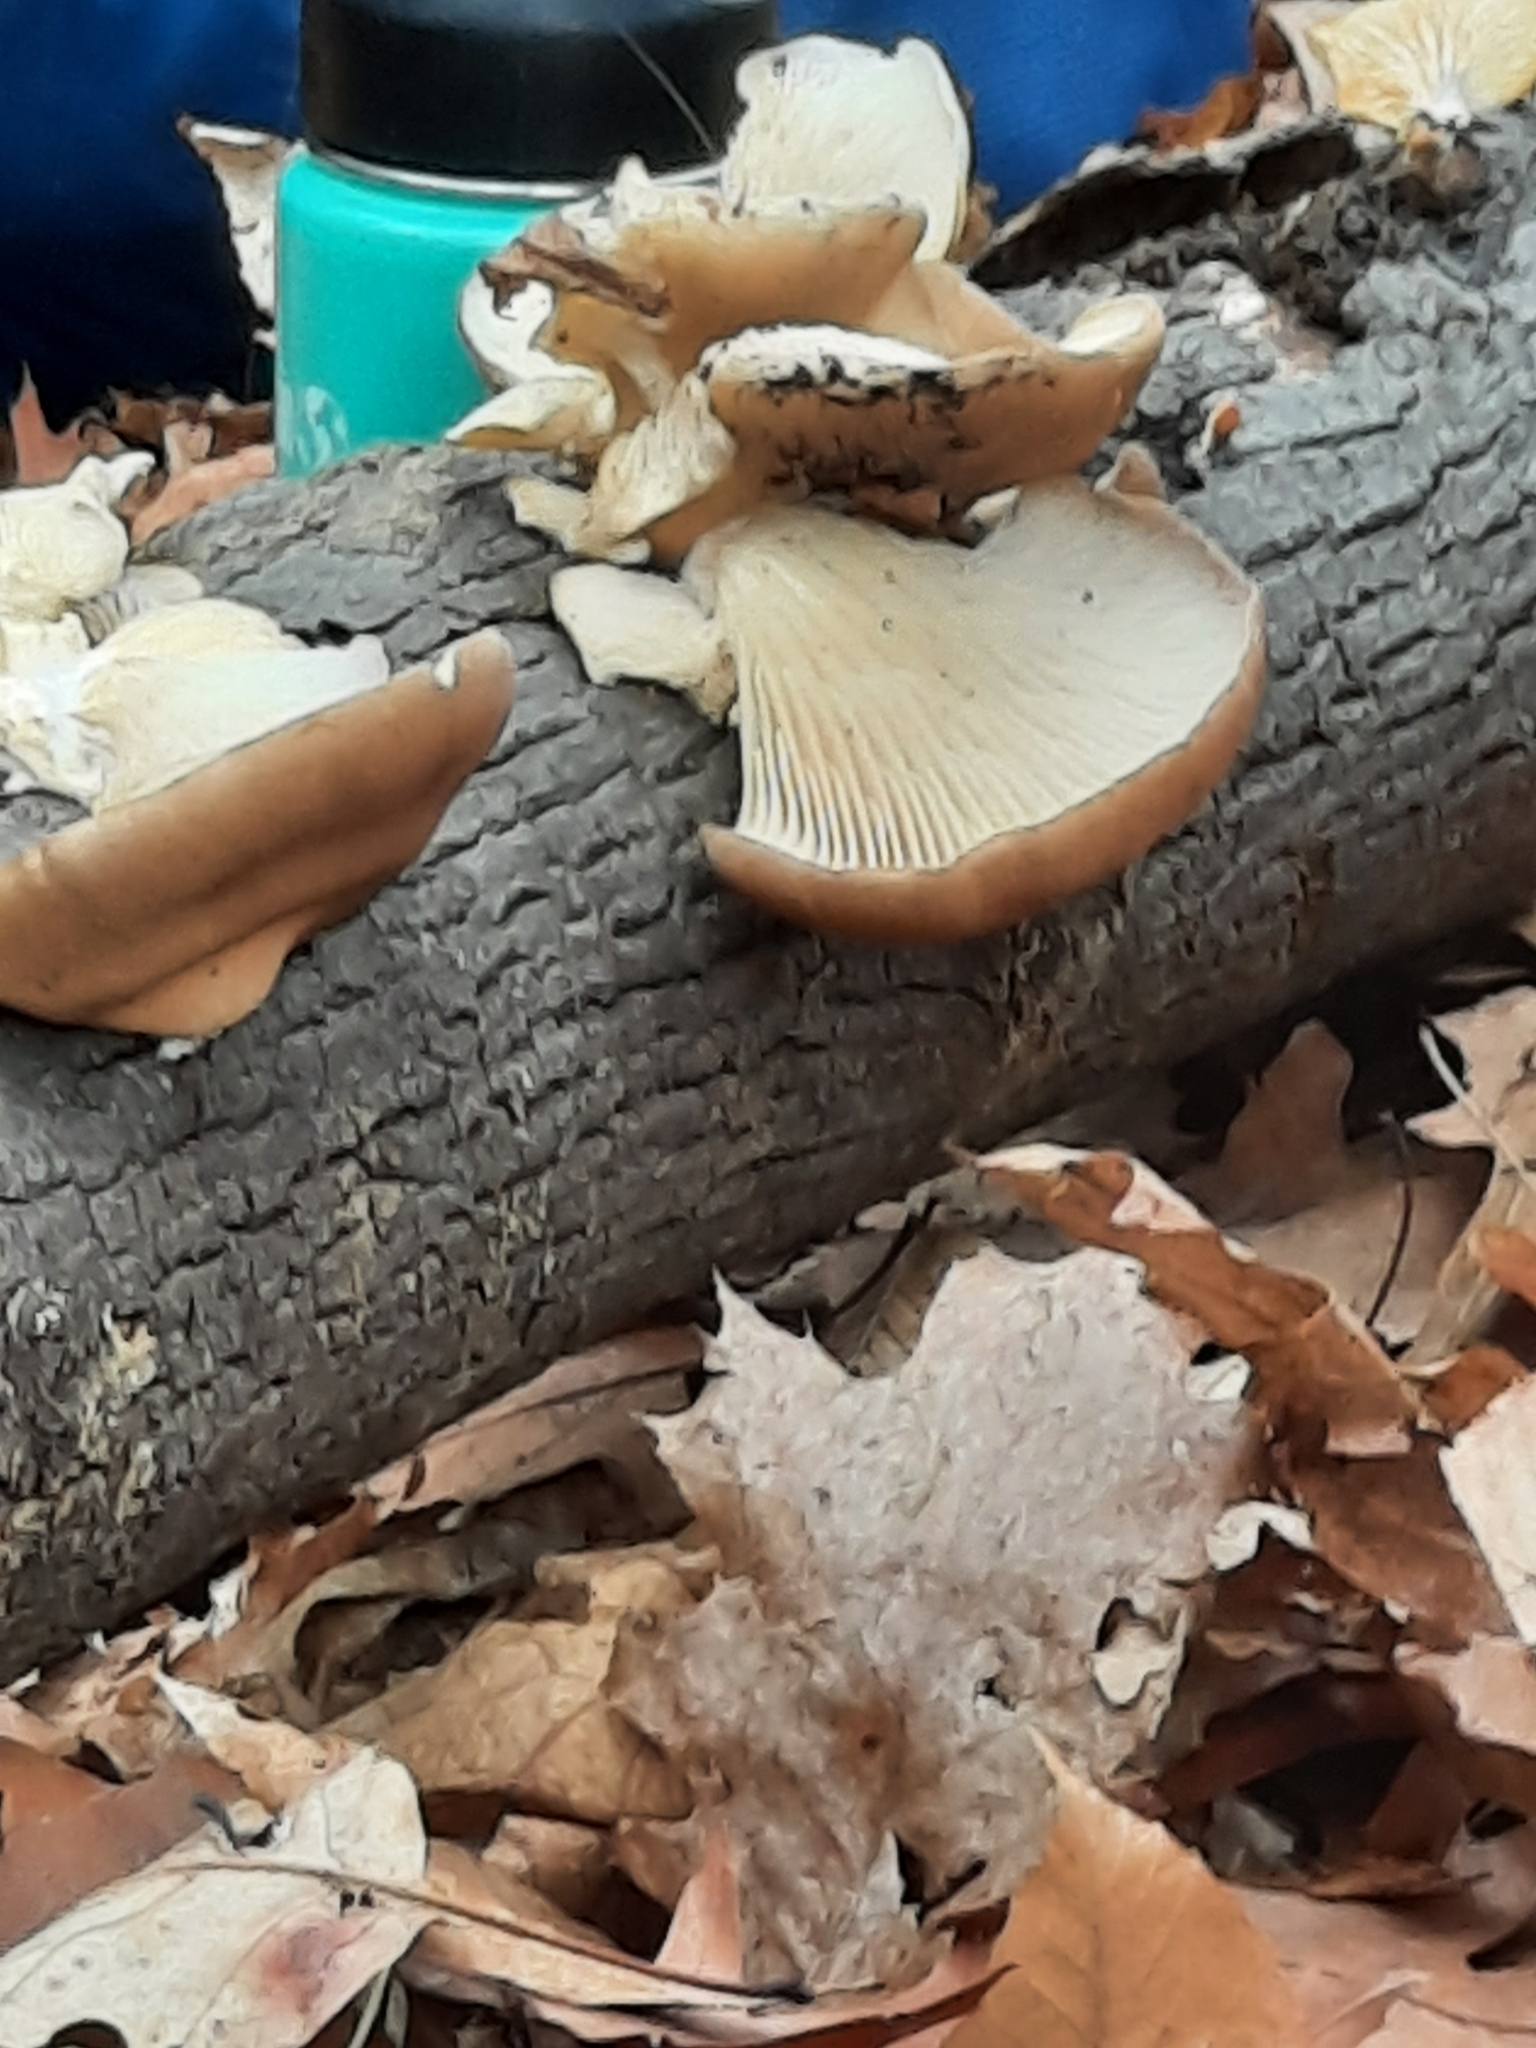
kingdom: Fungi
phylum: Basidiomycota
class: Agaricomycetes
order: Agaricales
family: Pleurotaceae
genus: Pleurotus
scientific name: Pleurotus ostreatus
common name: Oyster mushroom
